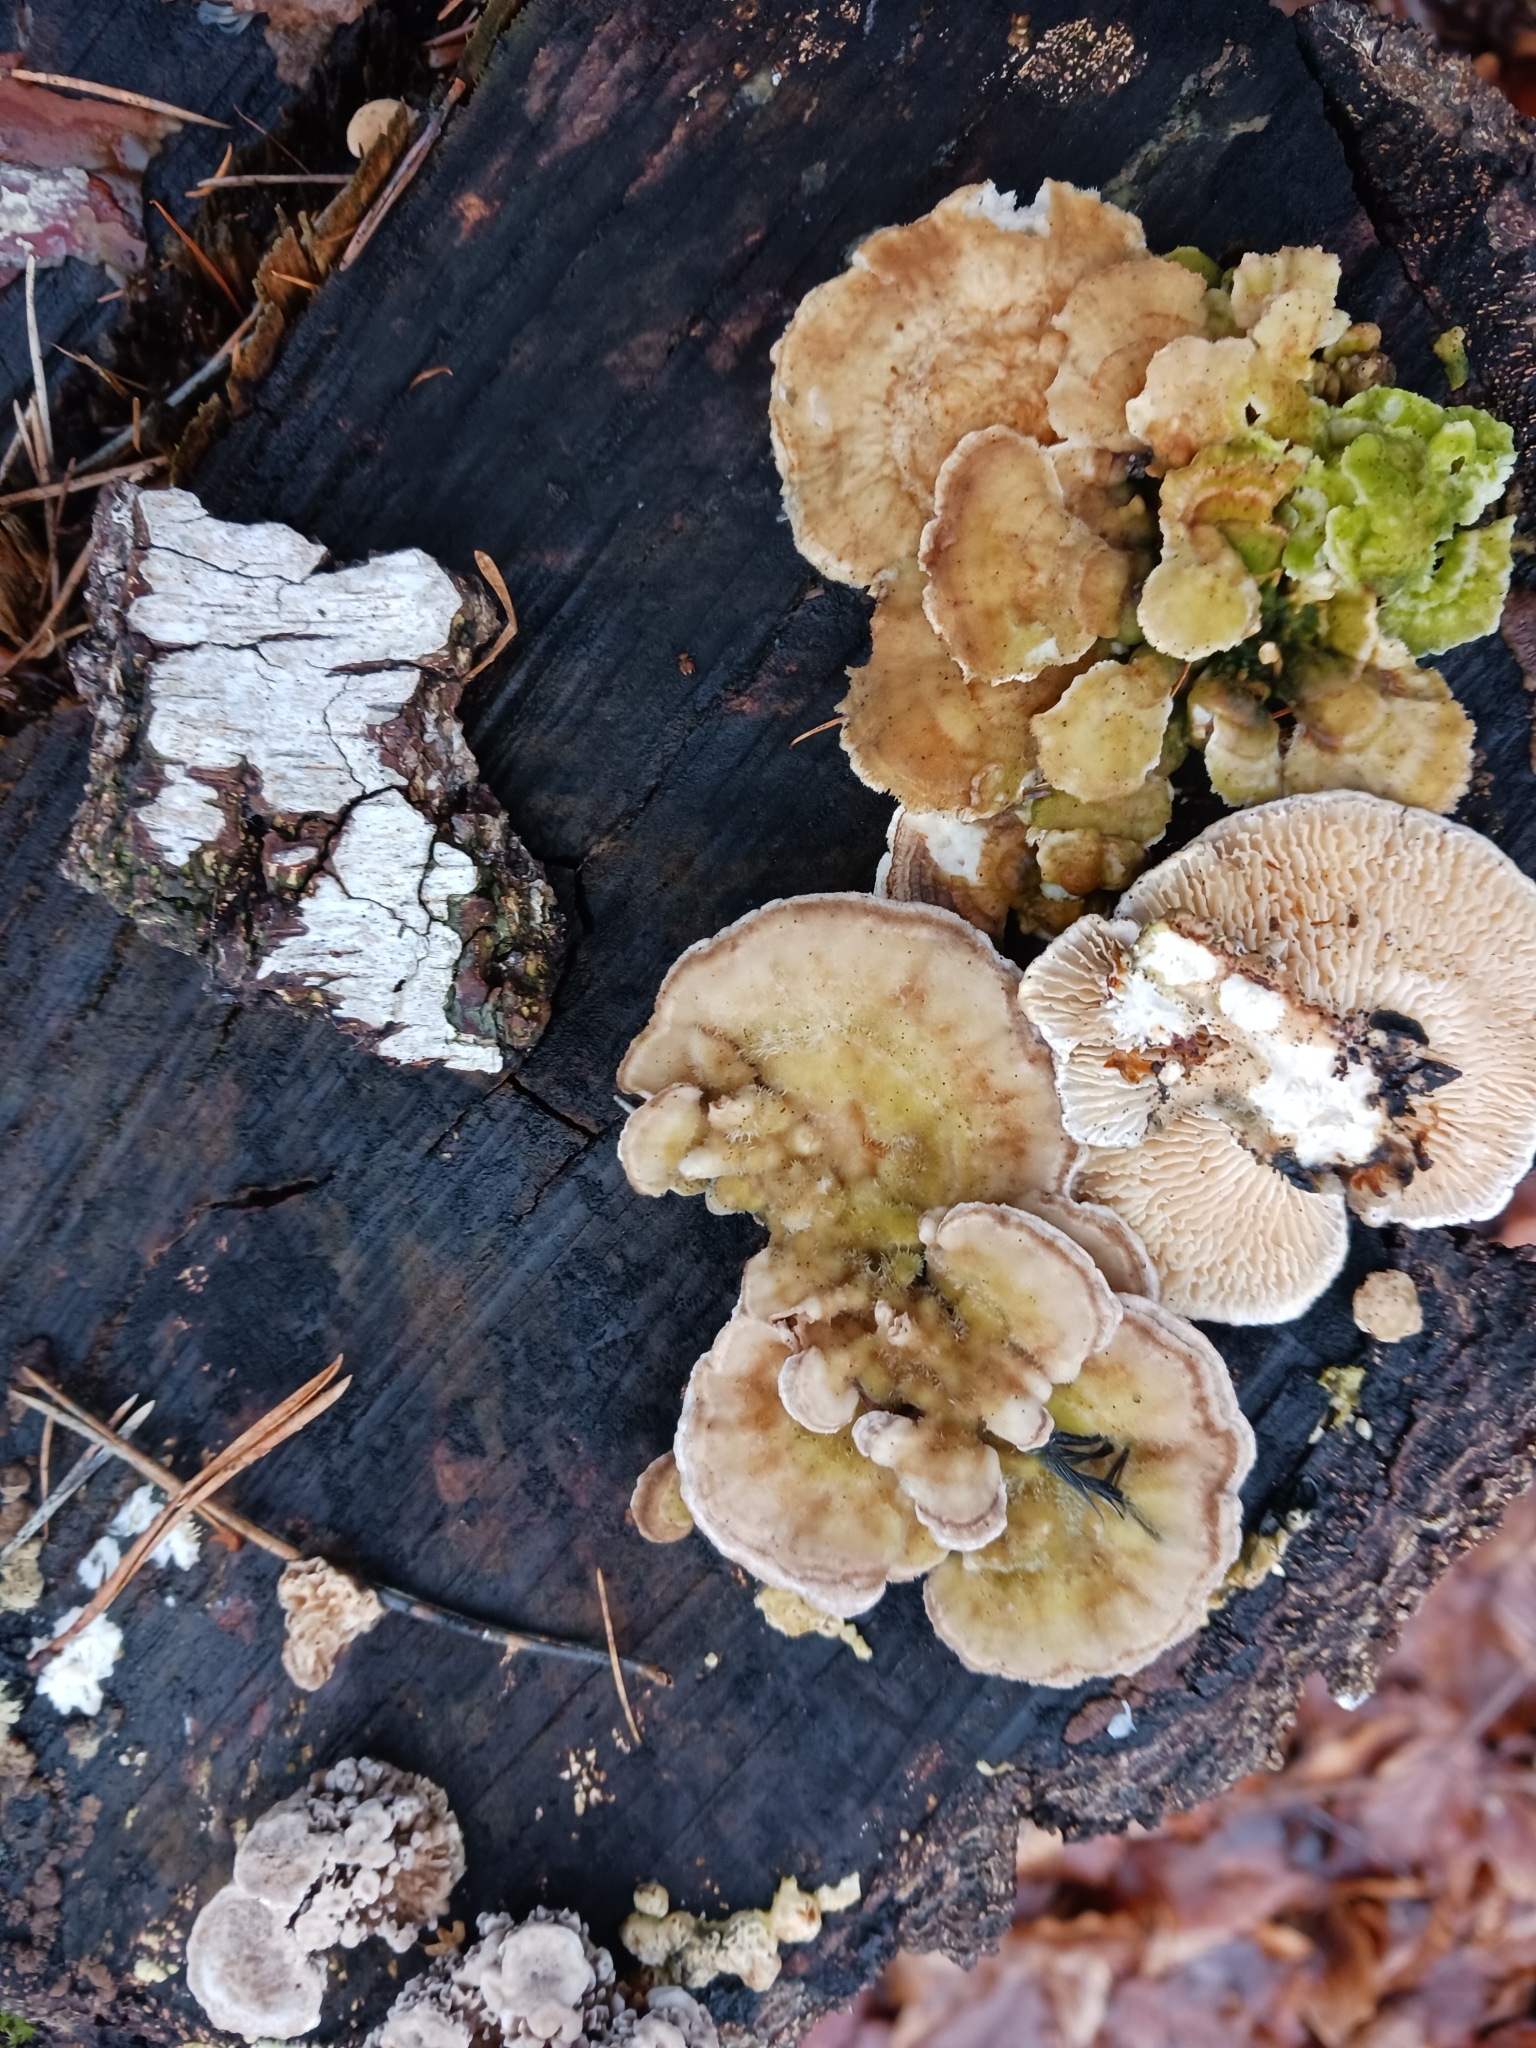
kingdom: Fungi
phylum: Basidiomycota
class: Agaricomycetes
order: Polyporales
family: Polyporaceae
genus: Lenzites
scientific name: Lenzites betulinus
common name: Birch mazegill
